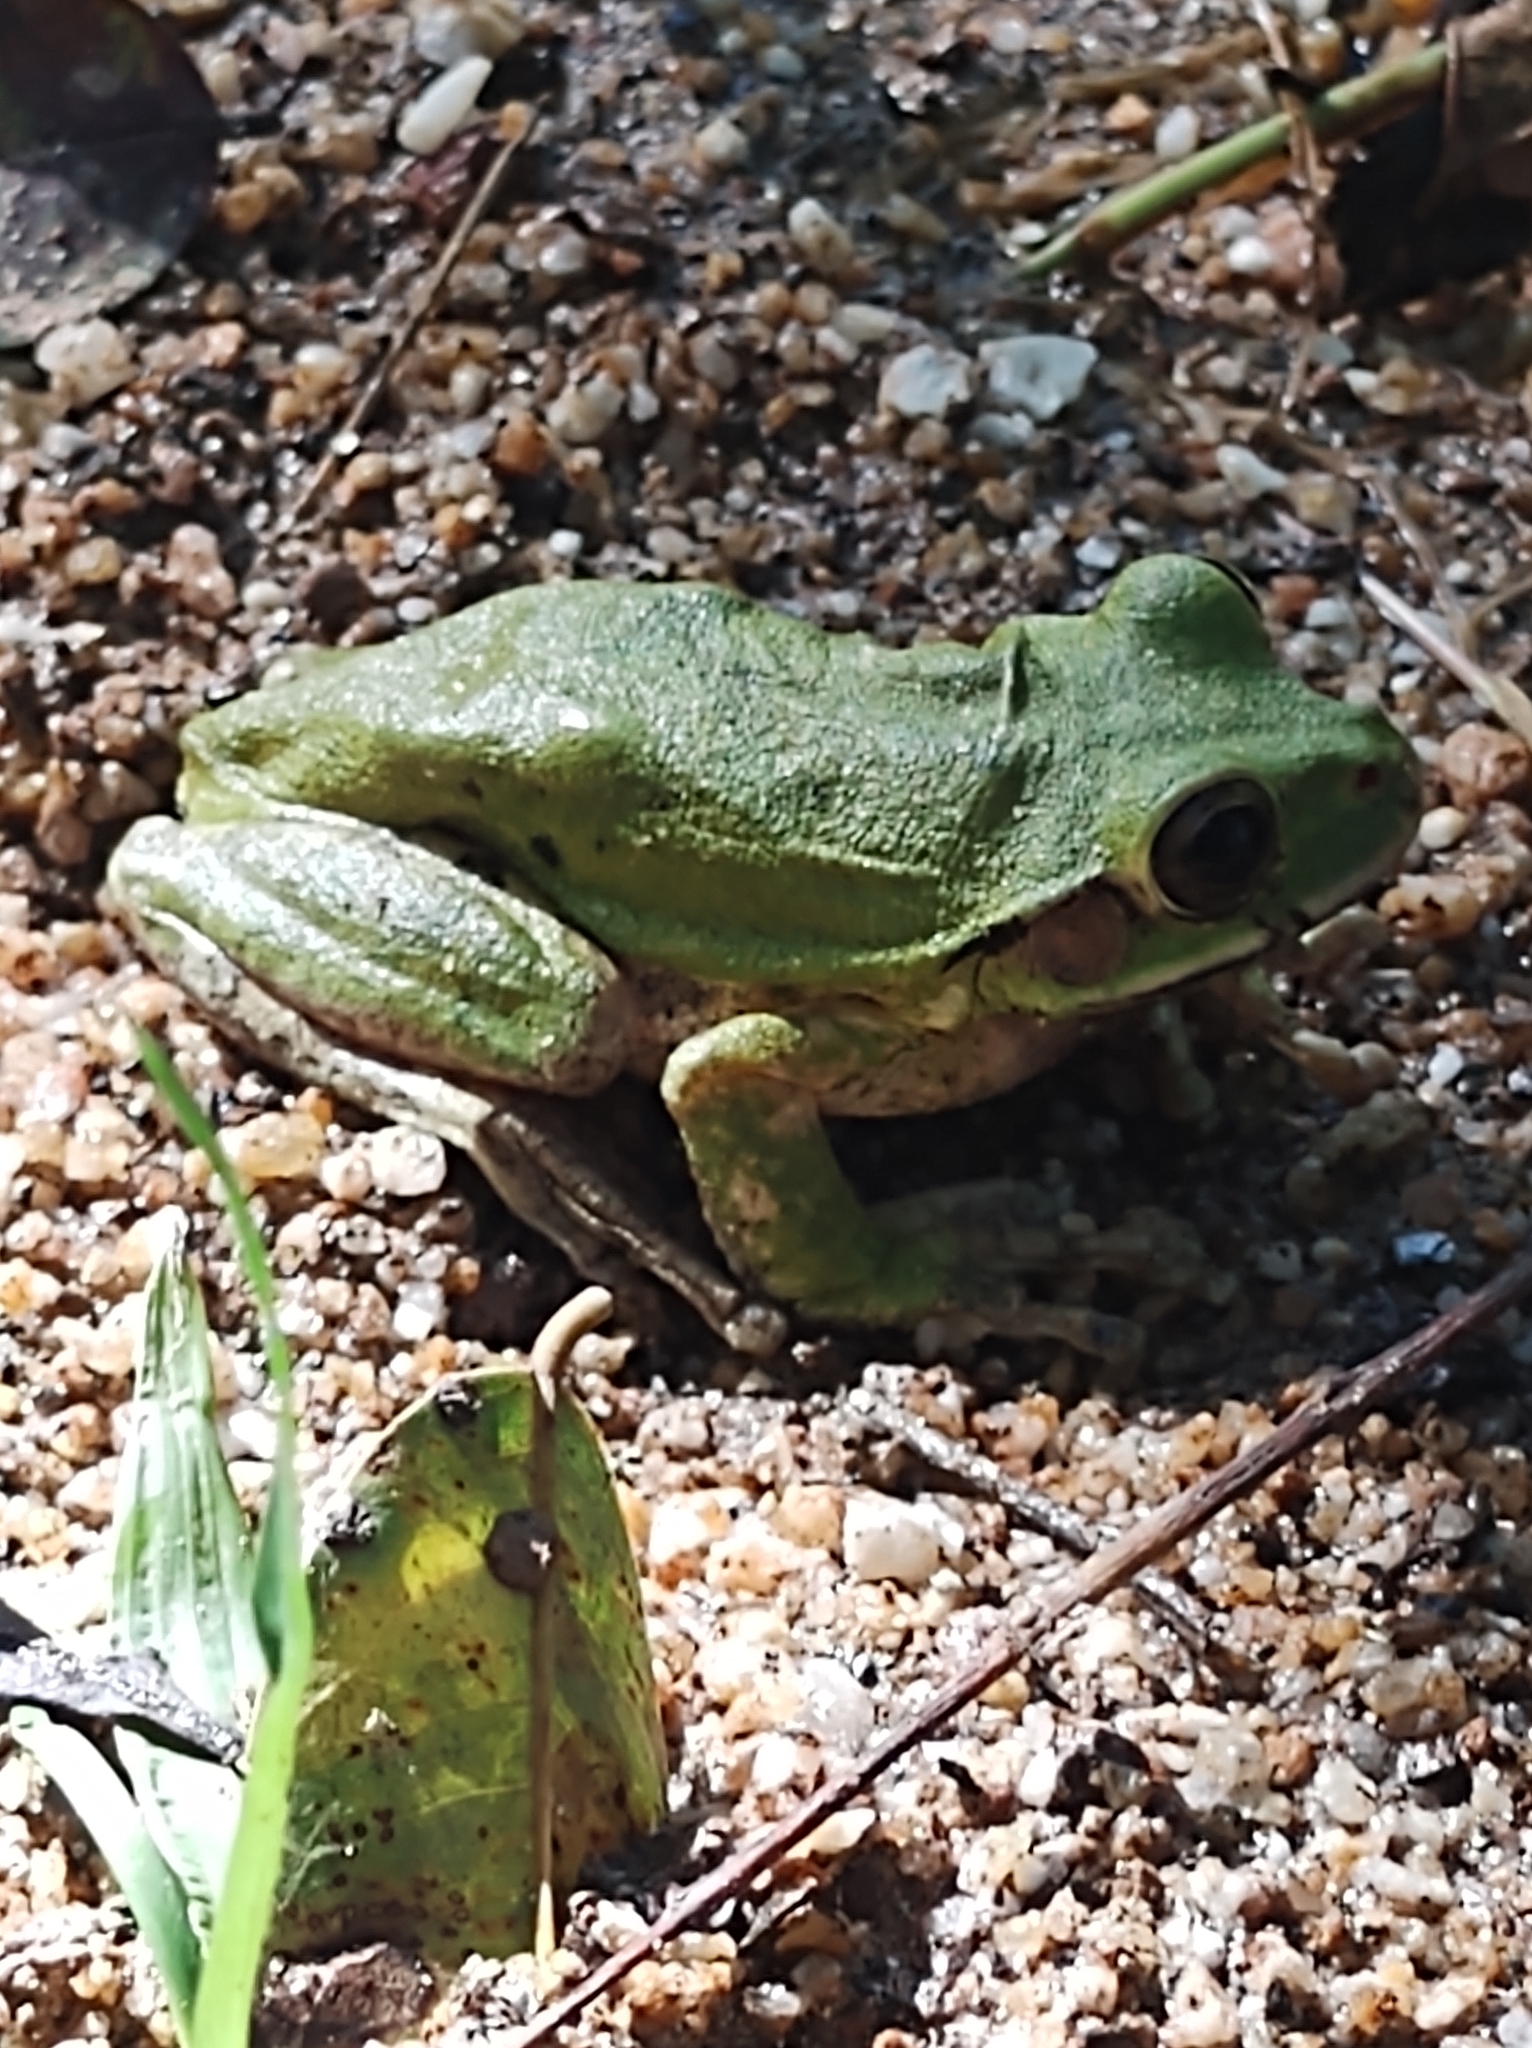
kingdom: Animalia
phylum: Chordata
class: Amphibia
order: Anura
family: Hylidae
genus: Smilisca
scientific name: Smilisca baudinii
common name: Mexican smilisca
